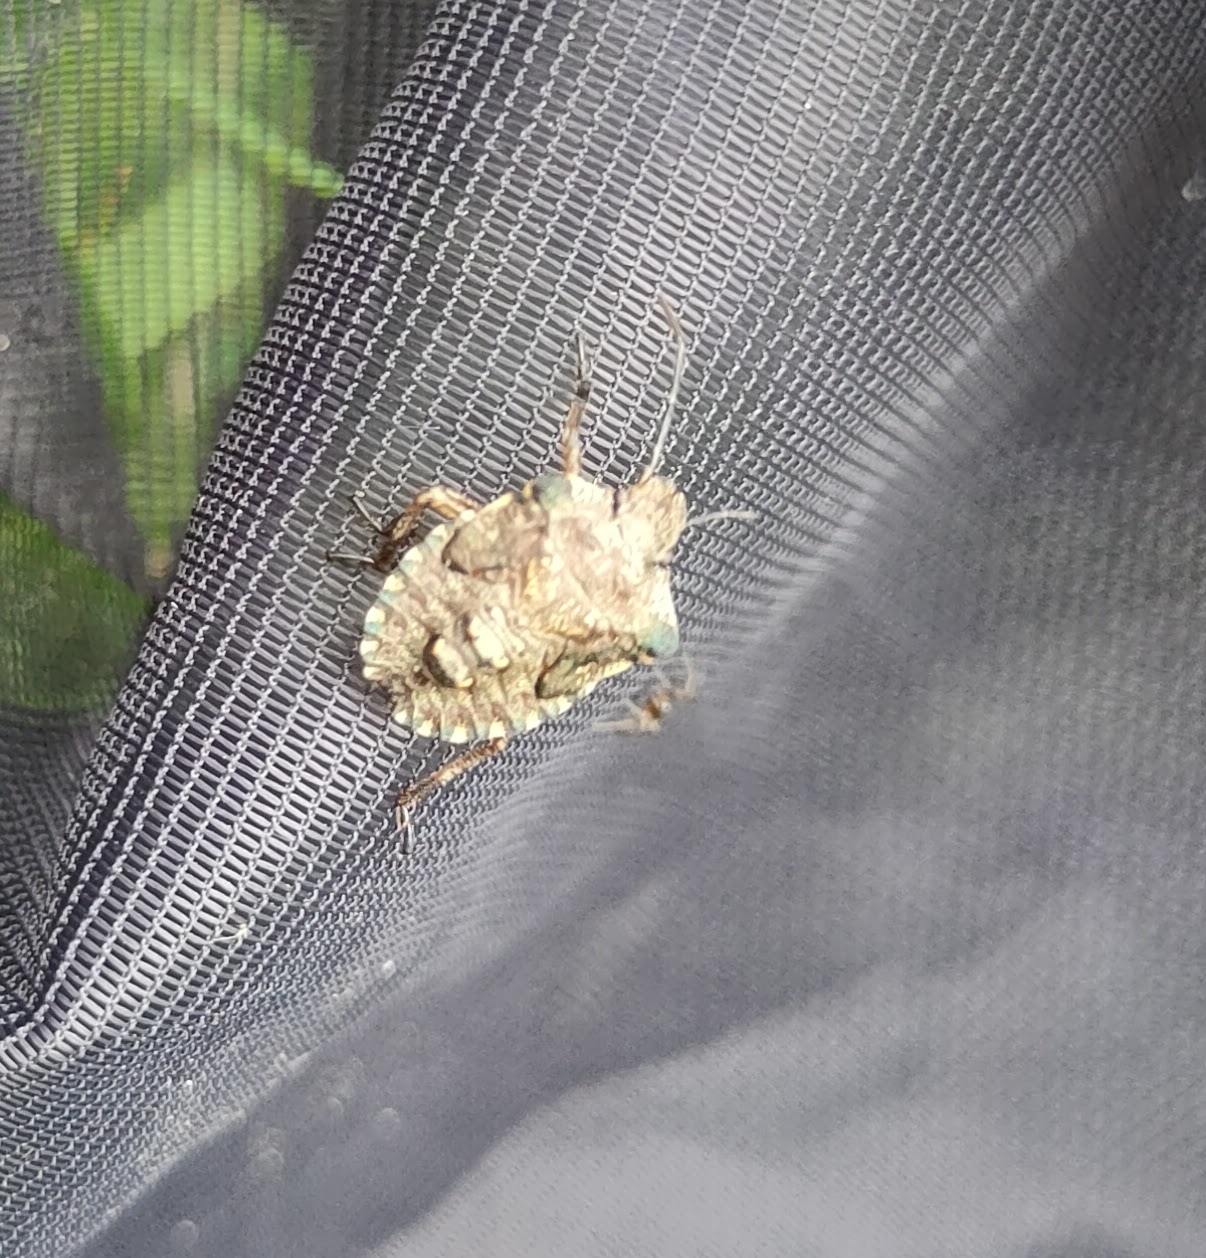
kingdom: Animalia
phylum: Arthropoda
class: Insecta
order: Hemiptera
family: Pentatomidae
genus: Pentatoma
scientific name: Pentatoma rufipes
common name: Forest bug
